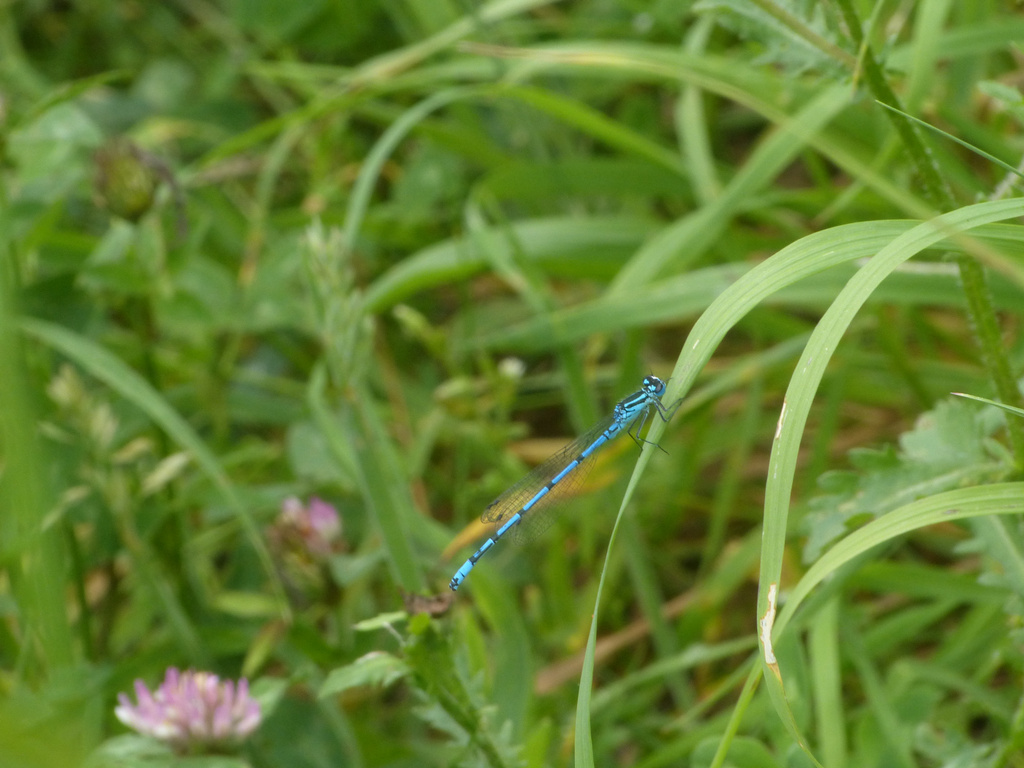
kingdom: Animalia
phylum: Arthropoda
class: Insecta
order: Odonata
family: Coenagrionidae
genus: Coenagrion
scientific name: Coenagrion puella
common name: Azure damselfly
